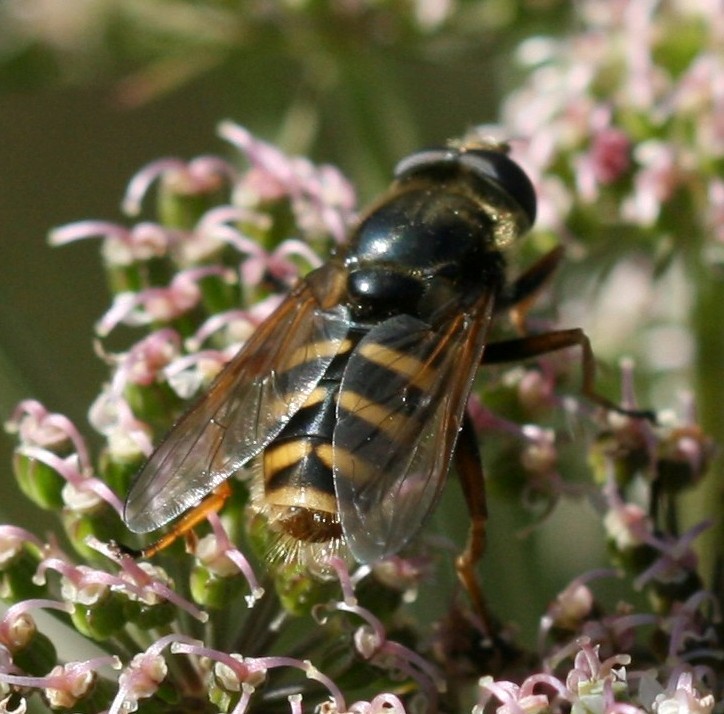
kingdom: Animalia
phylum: Arthropoda
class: Insecta
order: Diptera
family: Syrphidae
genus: Sericomyia
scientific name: Sericomyia silentis
